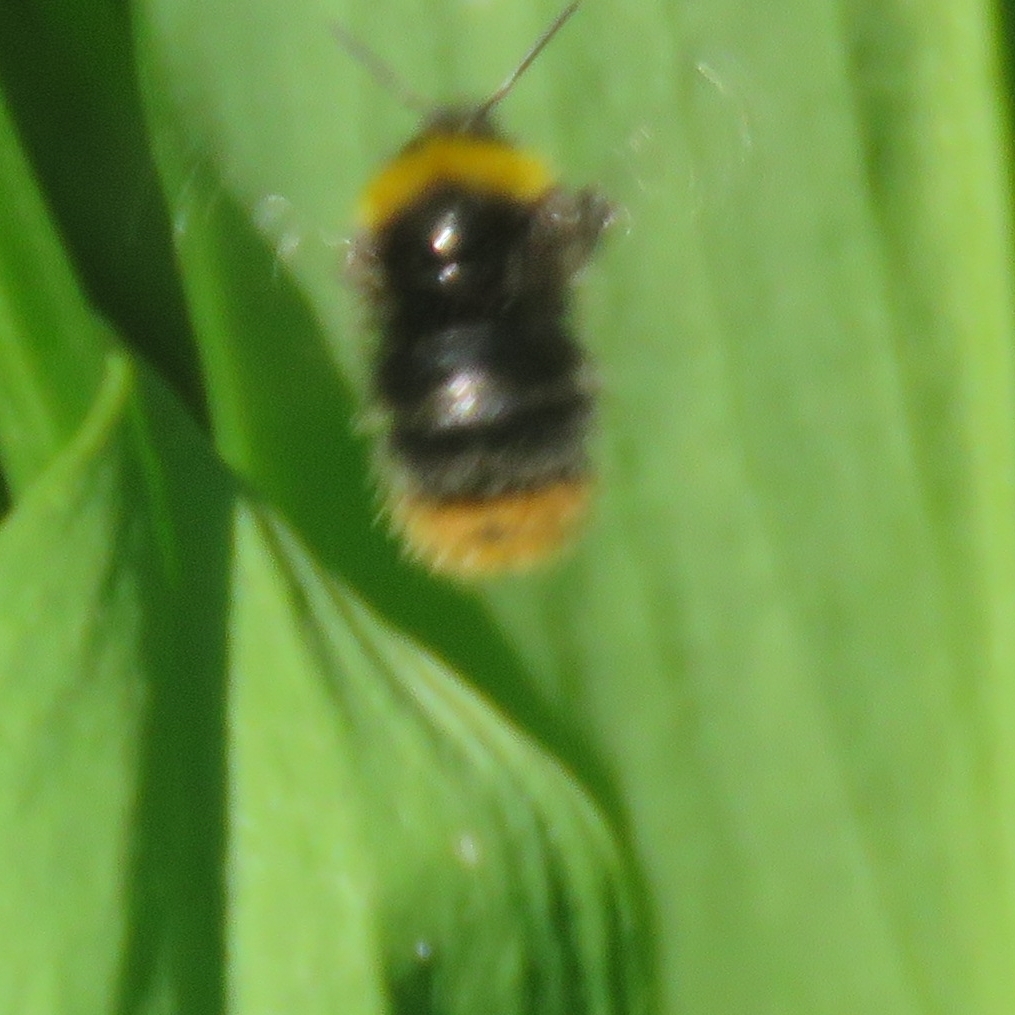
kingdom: Animalia
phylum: Arthropoda
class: Insecta
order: Hymenoptera
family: Apidae
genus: Bombus
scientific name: Bombus pratorum
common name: Early humble-bee
